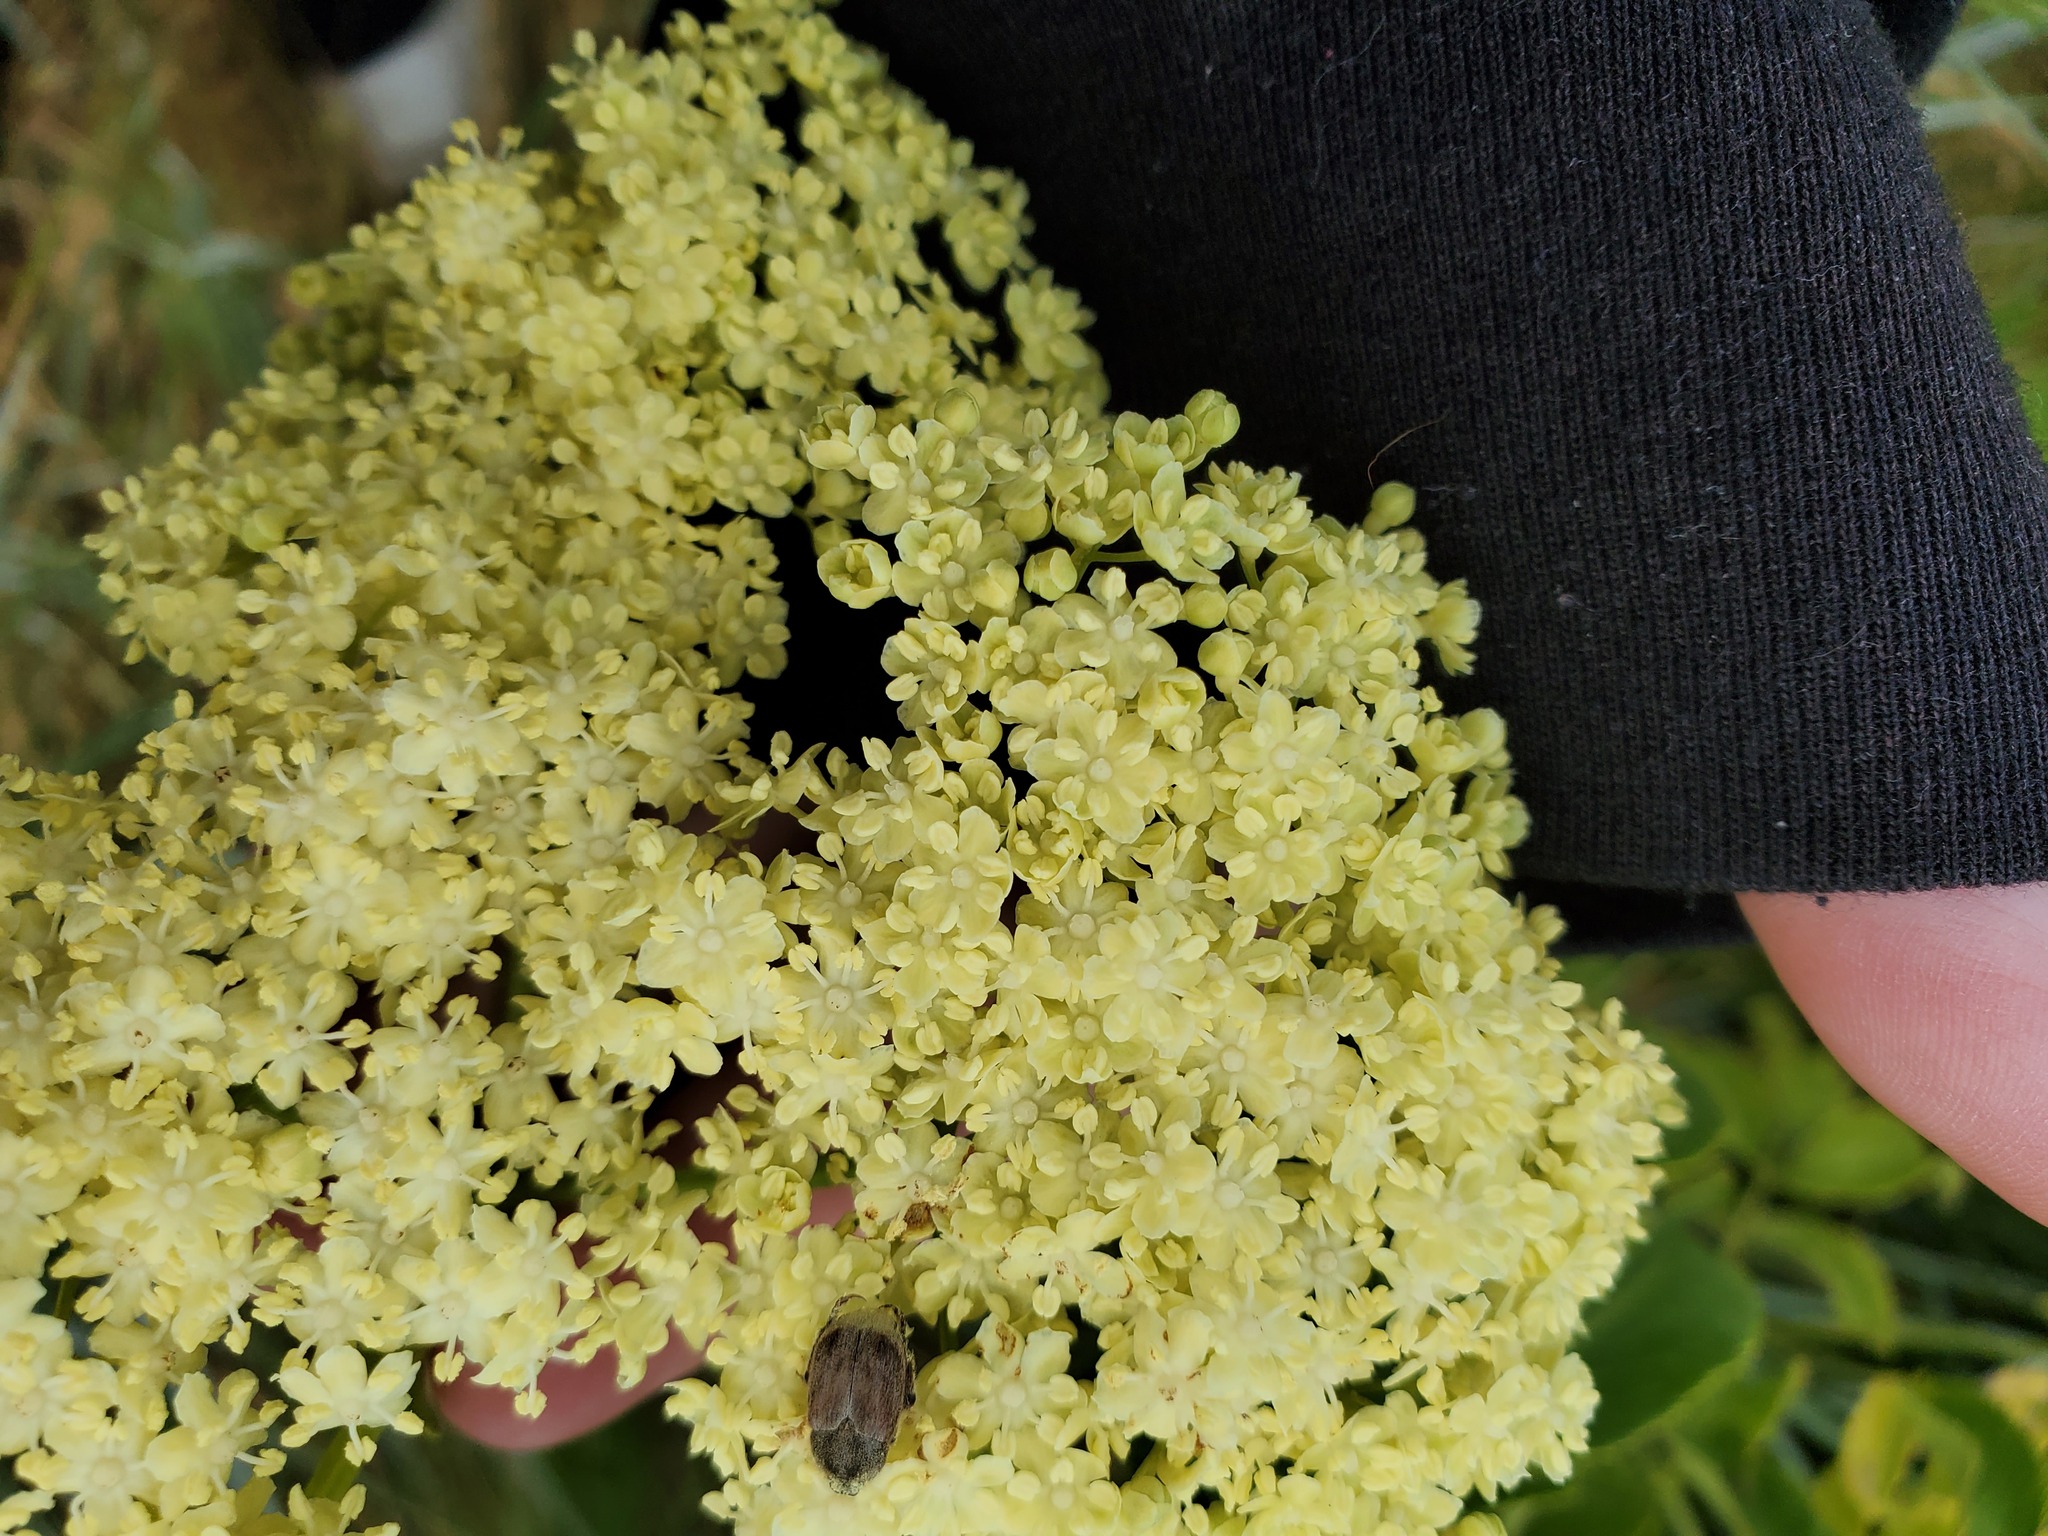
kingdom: Plantae
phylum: Tracheophyta
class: Magnoliopsida
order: Dipsacales
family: Viburnaceae
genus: Sambucus
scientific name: Sambucus cerulea
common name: Blue elder
